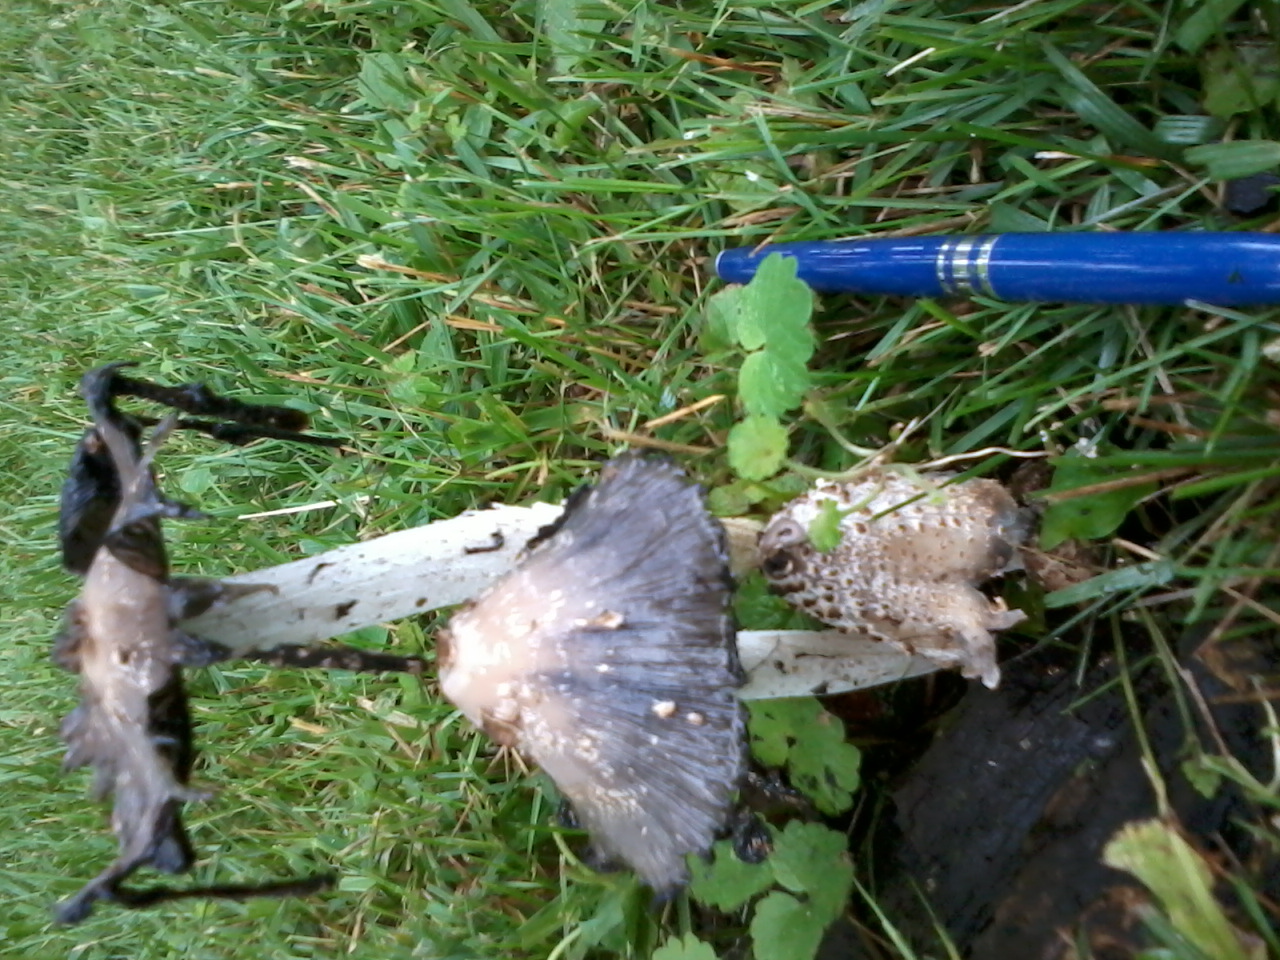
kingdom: Fungi
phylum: Basidiomycota
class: Agaricomycetes
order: Agaricales
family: Psathyrellaceae
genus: Coprinopsis
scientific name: Coprinopsis strossmayeri
